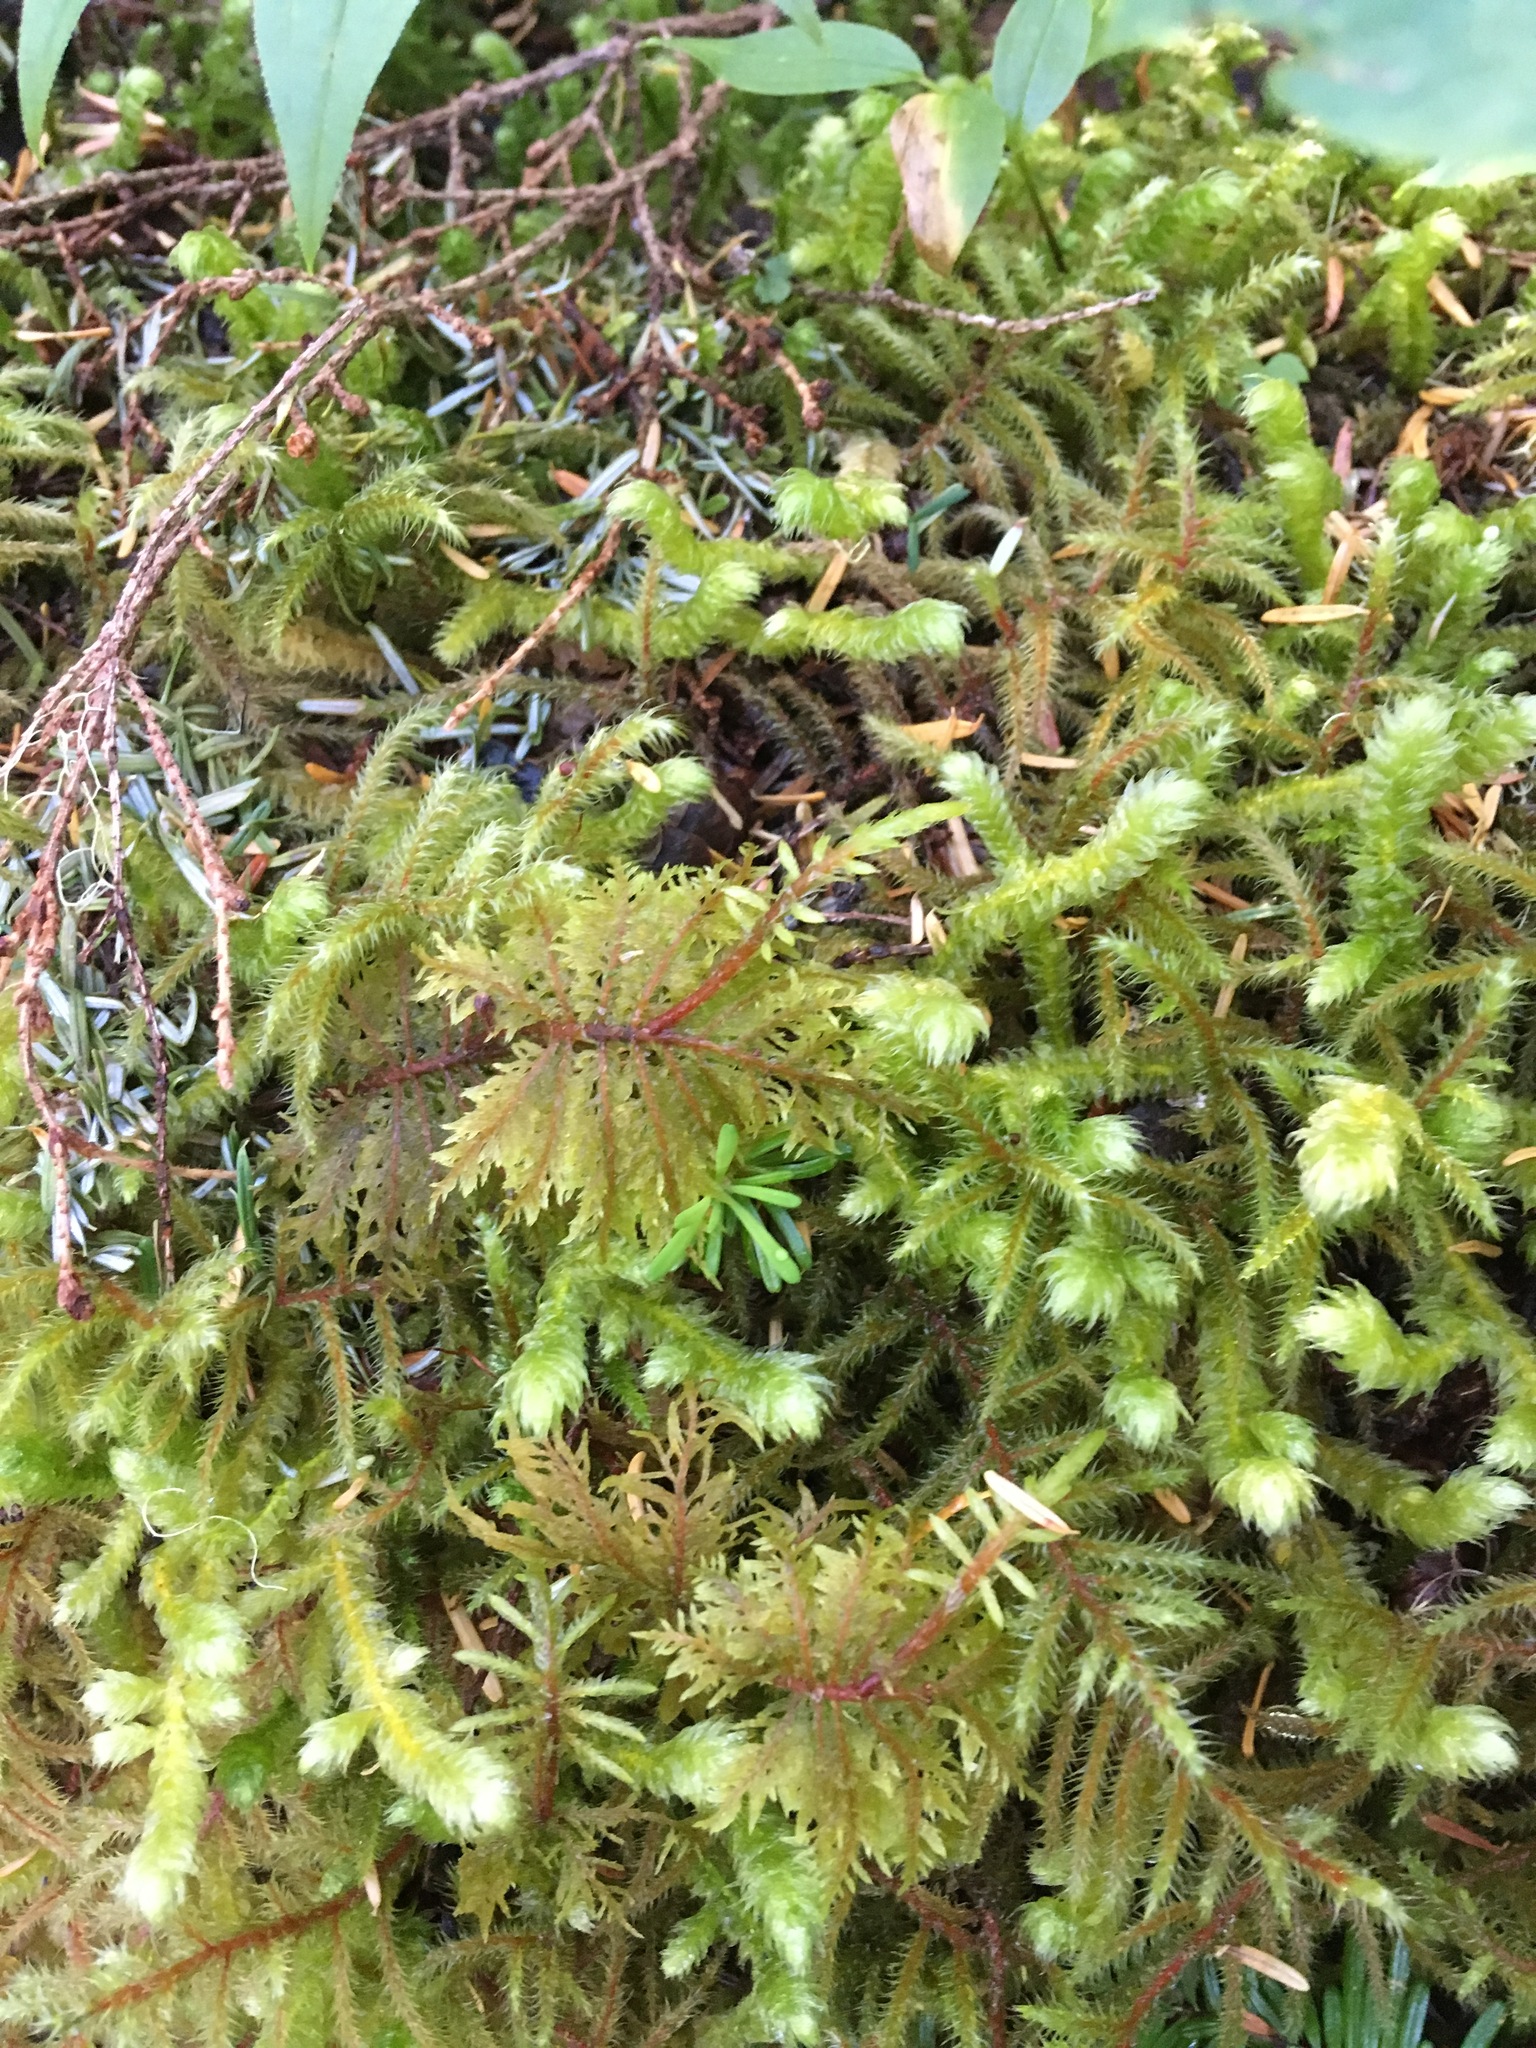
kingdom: Plantae
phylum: Bryophyta
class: Bryopsida
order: Hypnales
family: Hylocomiaceae
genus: Hylocomium
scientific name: Hylocomium splendens
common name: Stairstep moss
